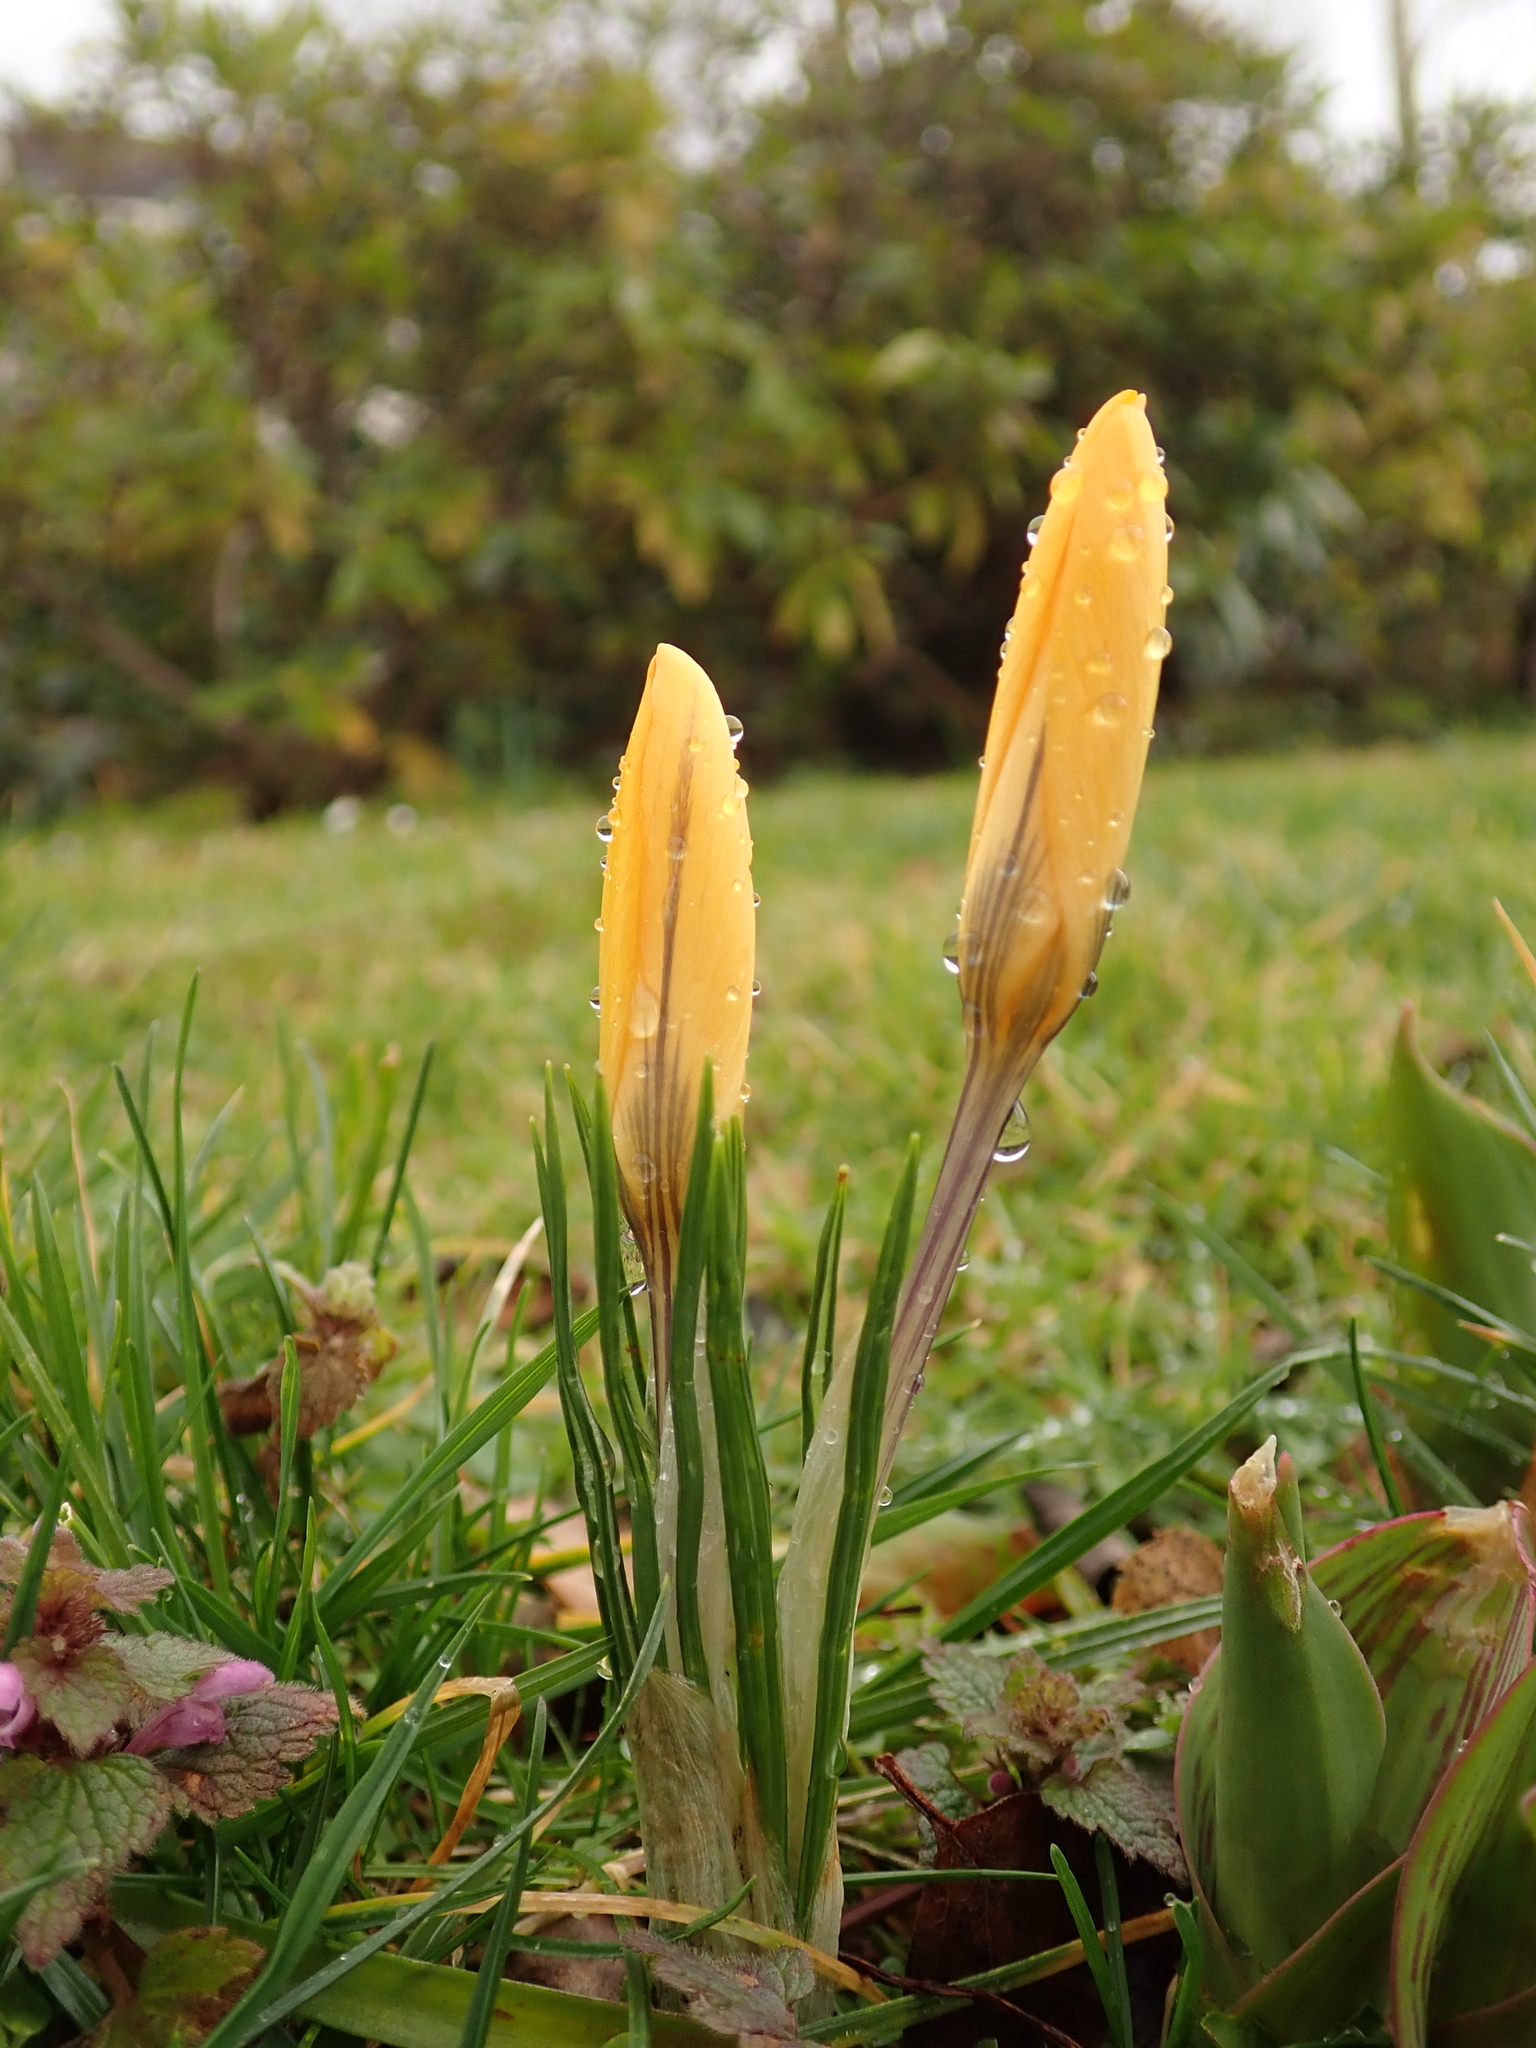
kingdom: Plantae
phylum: Tracheophyta
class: Liliopsida
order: Asparagales
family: Iridaceae
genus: Crocus
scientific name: Crocus luteus
